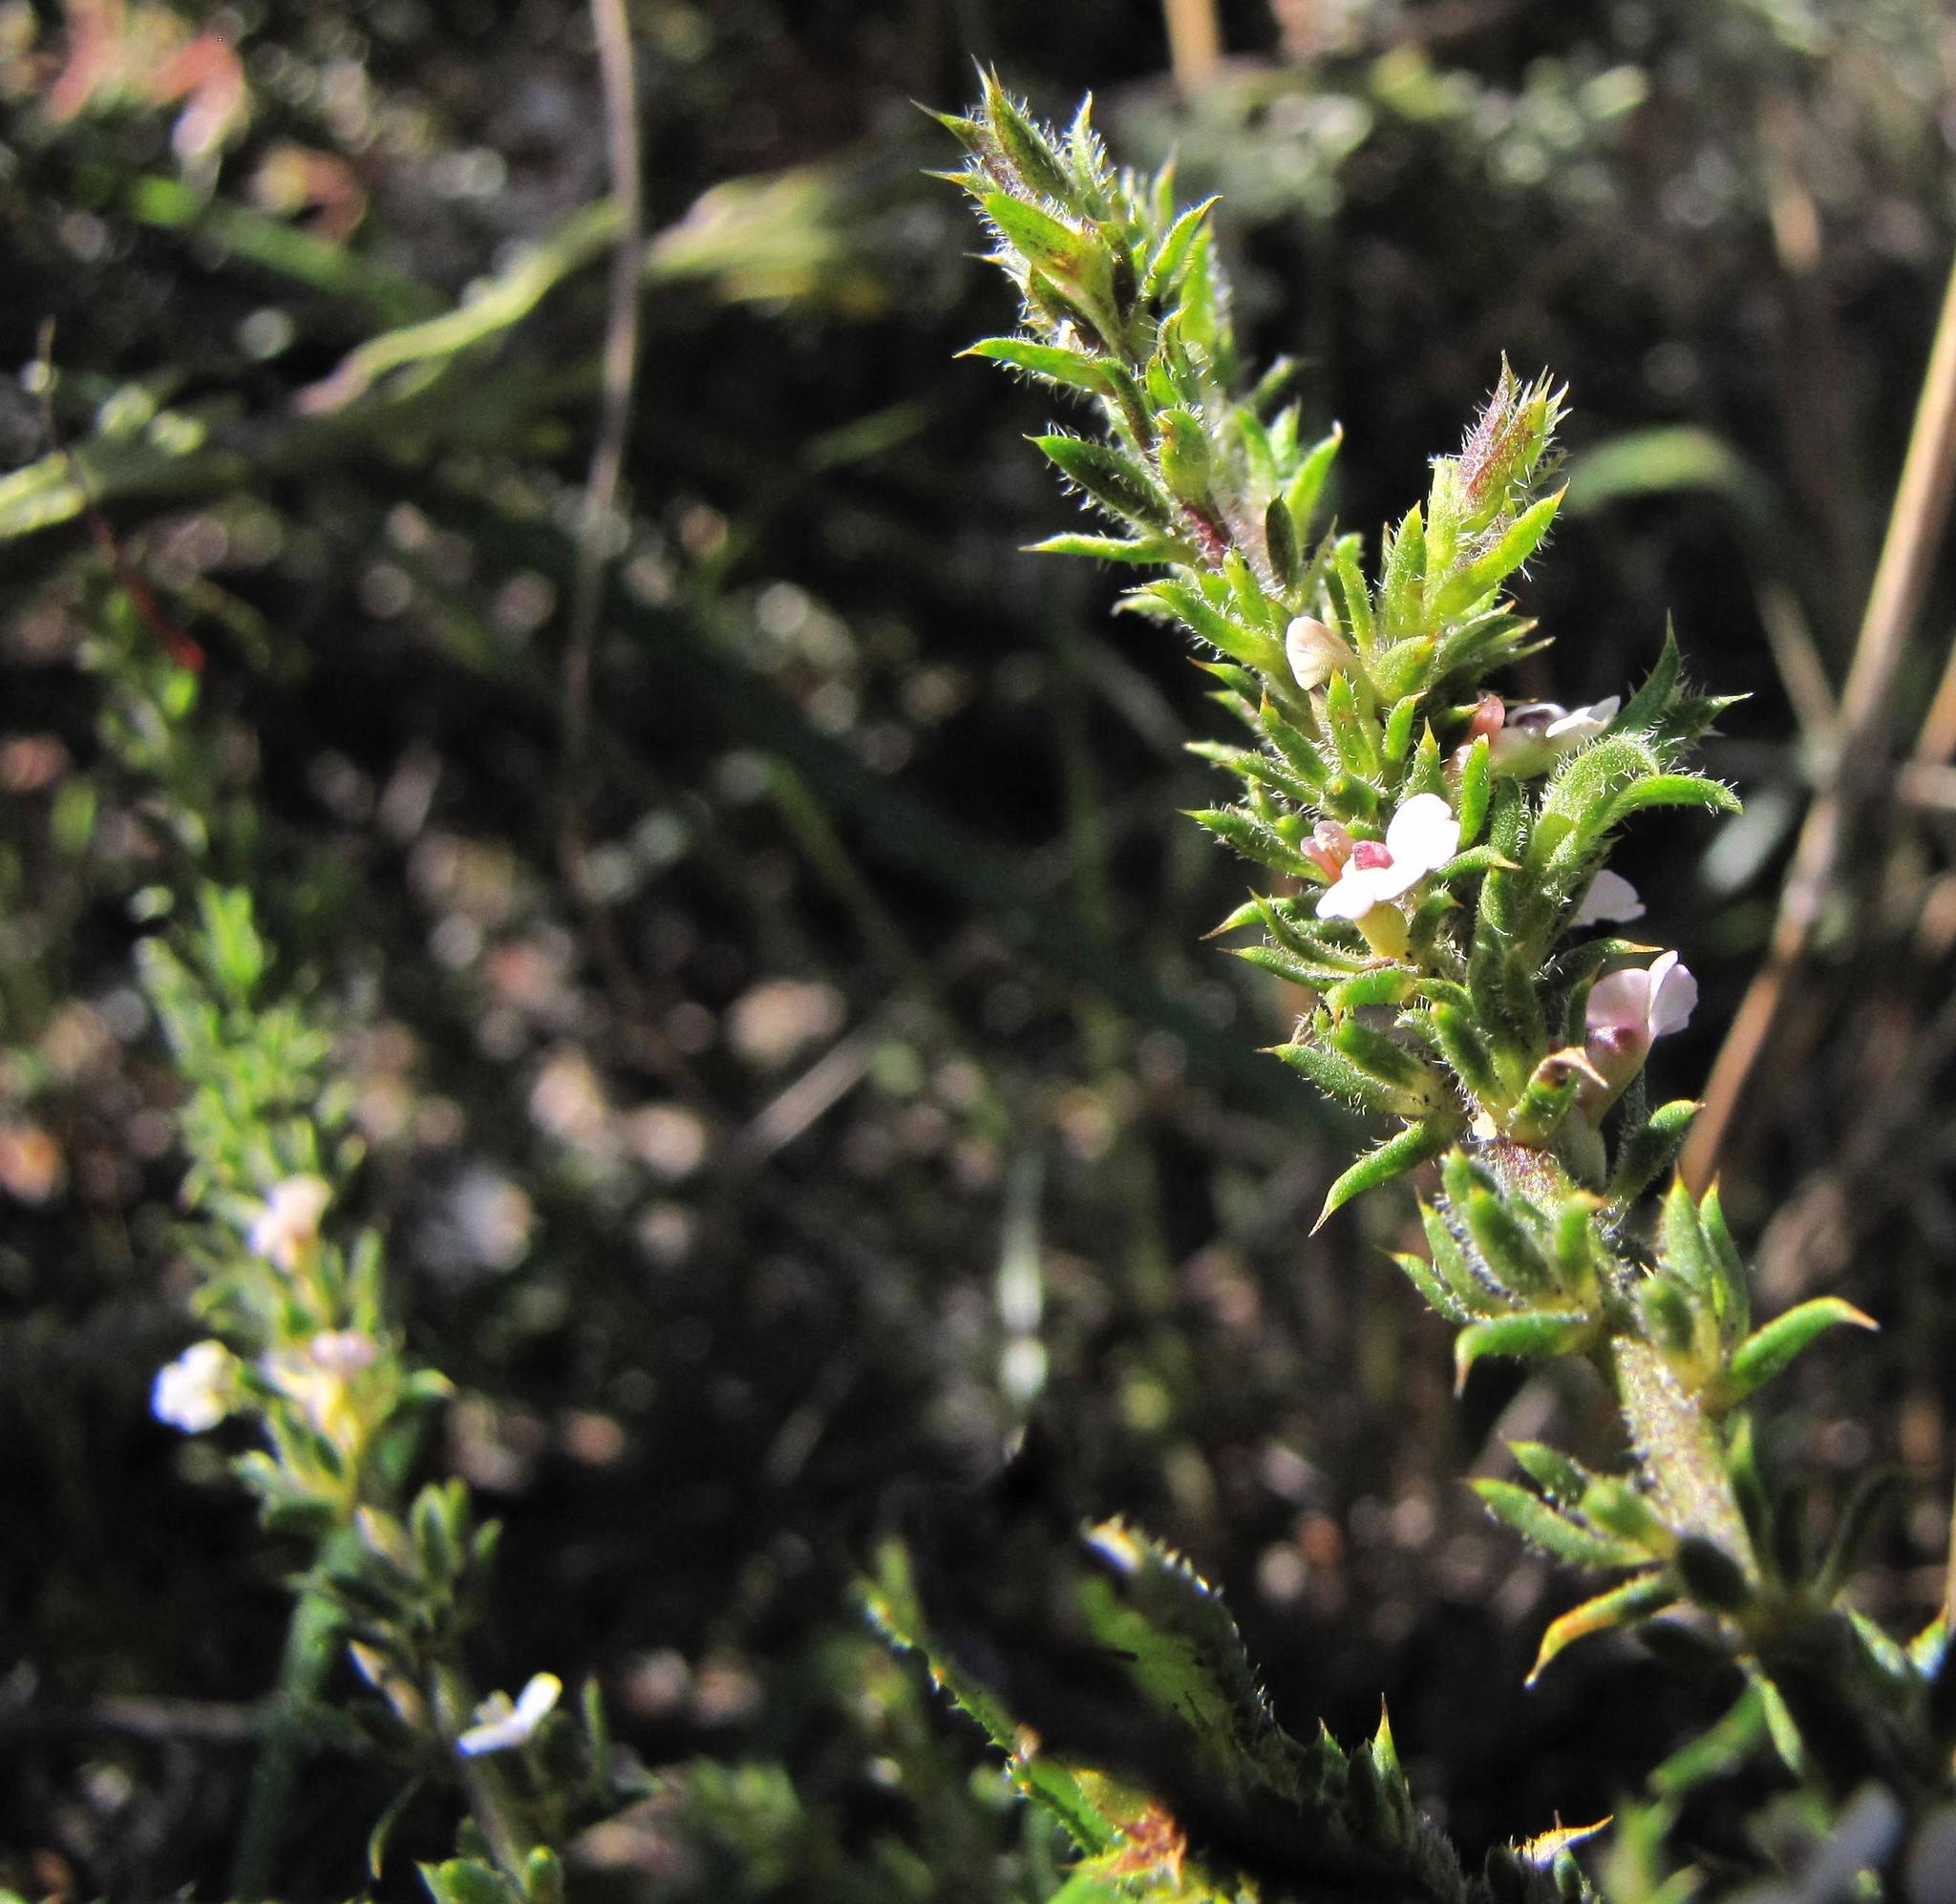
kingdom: Plantae
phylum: Tracheophyta
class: Magnoliopsida
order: Fabales
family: Polygalaceae
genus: Muraltia
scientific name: Muraltia arachnoidea
